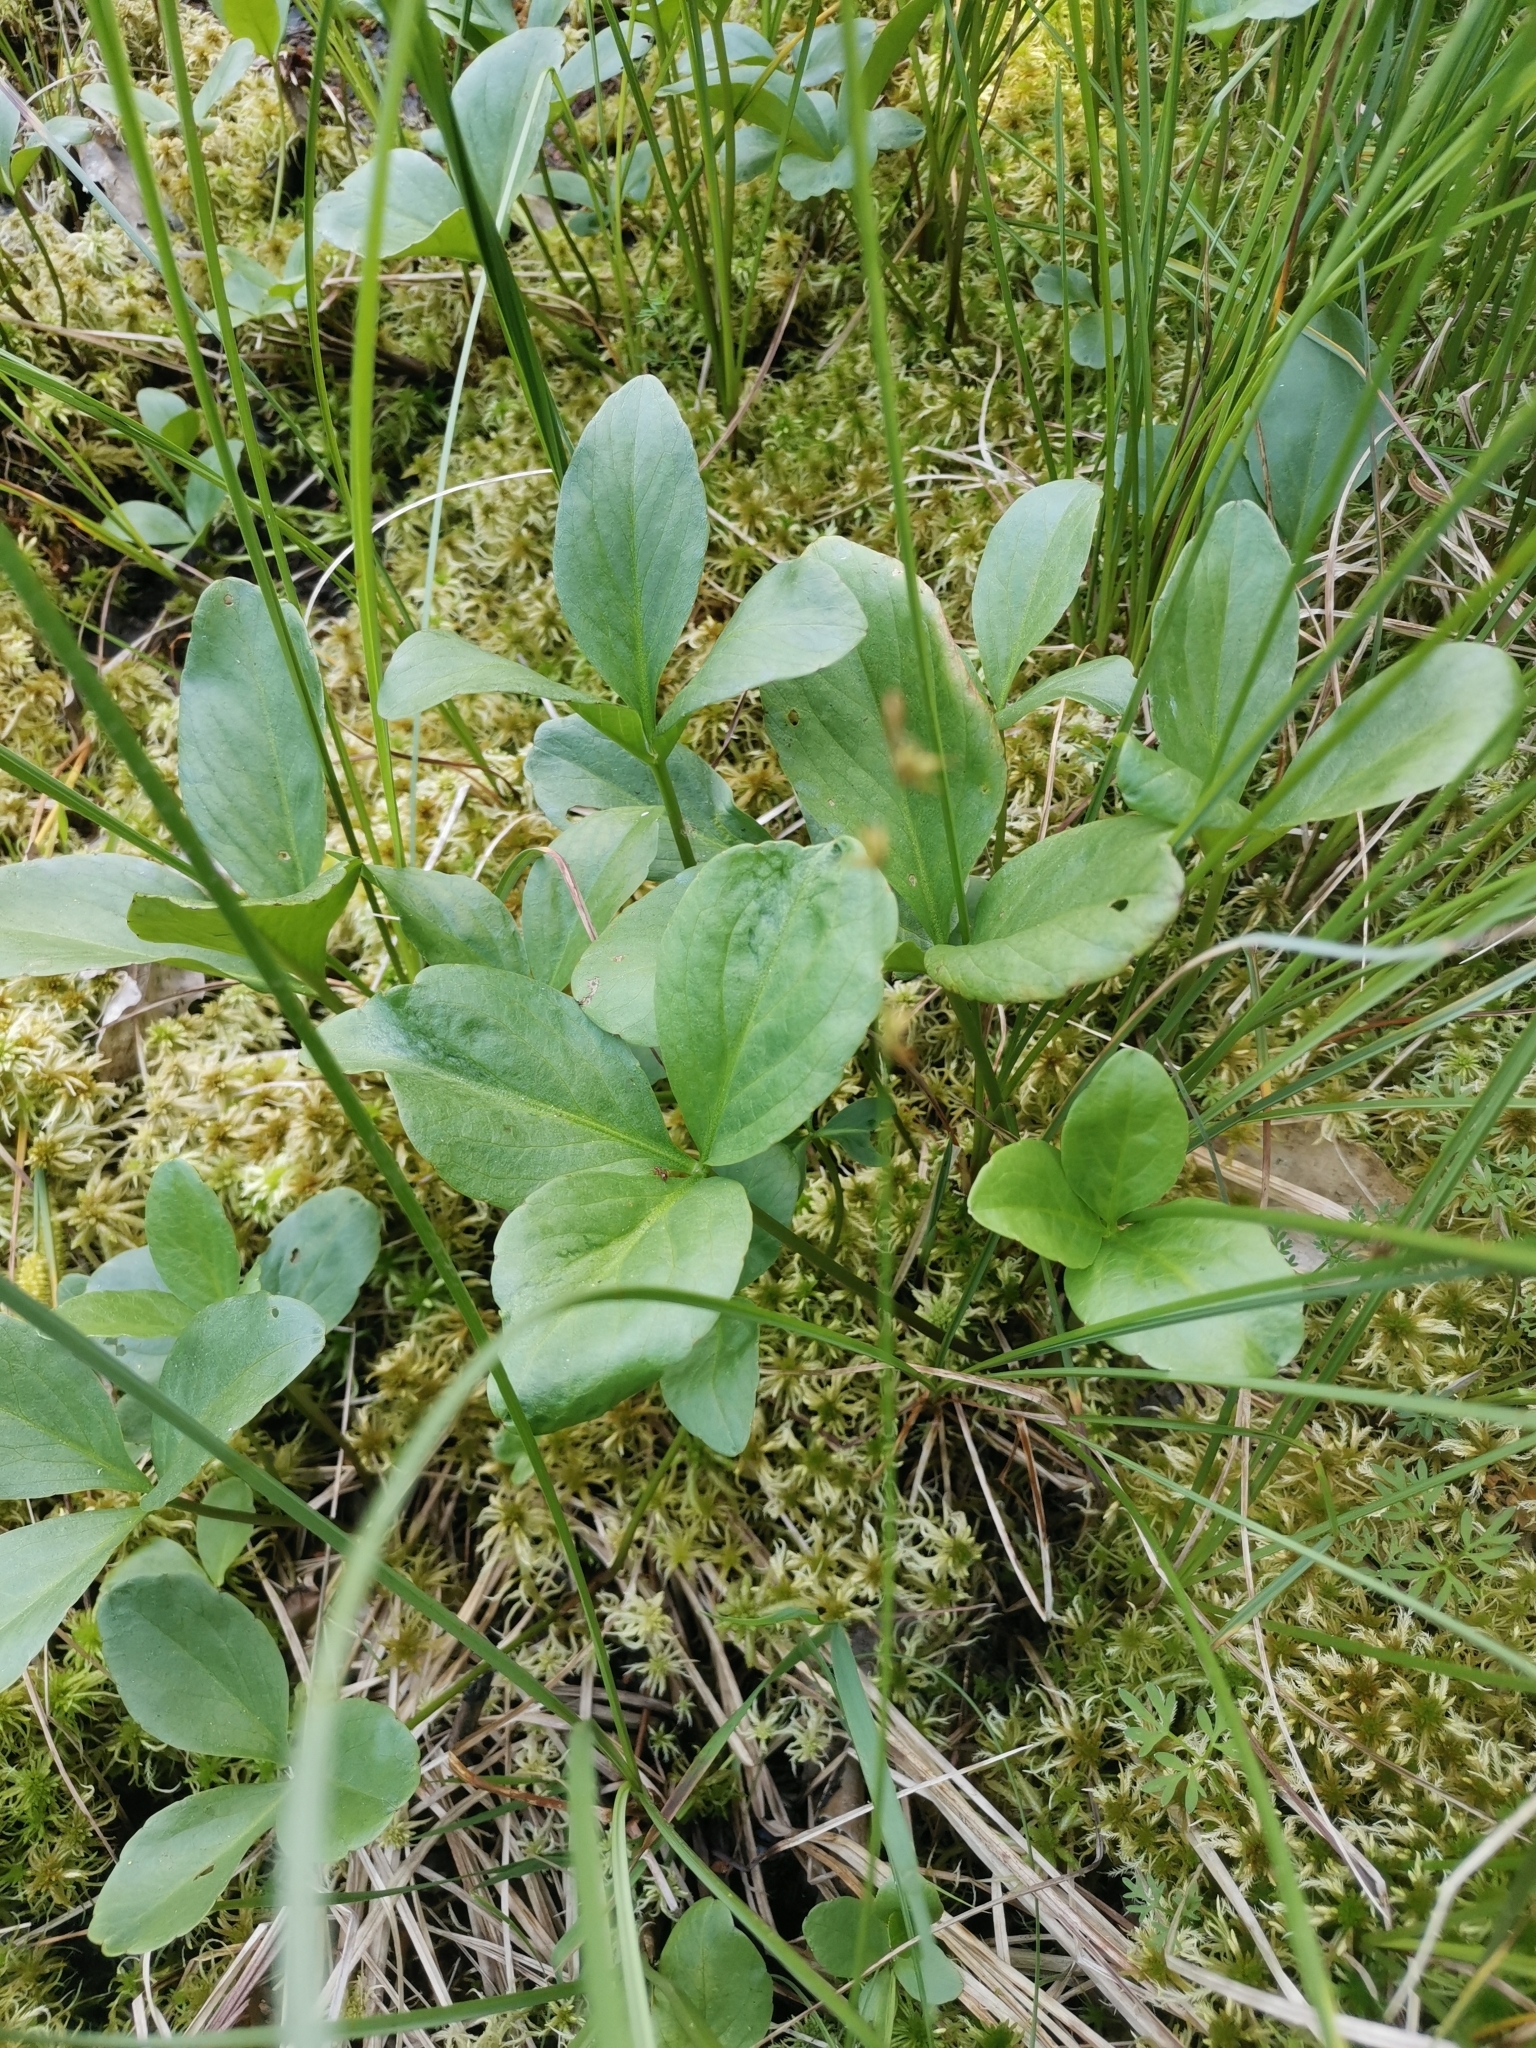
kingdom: Plantae
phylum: Tracheophyta
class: Magnoliopsida
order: Asterales
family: Menyanthaceae
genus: Menyanthes
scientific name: Menyanthes trifoliata
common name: Bogbean
